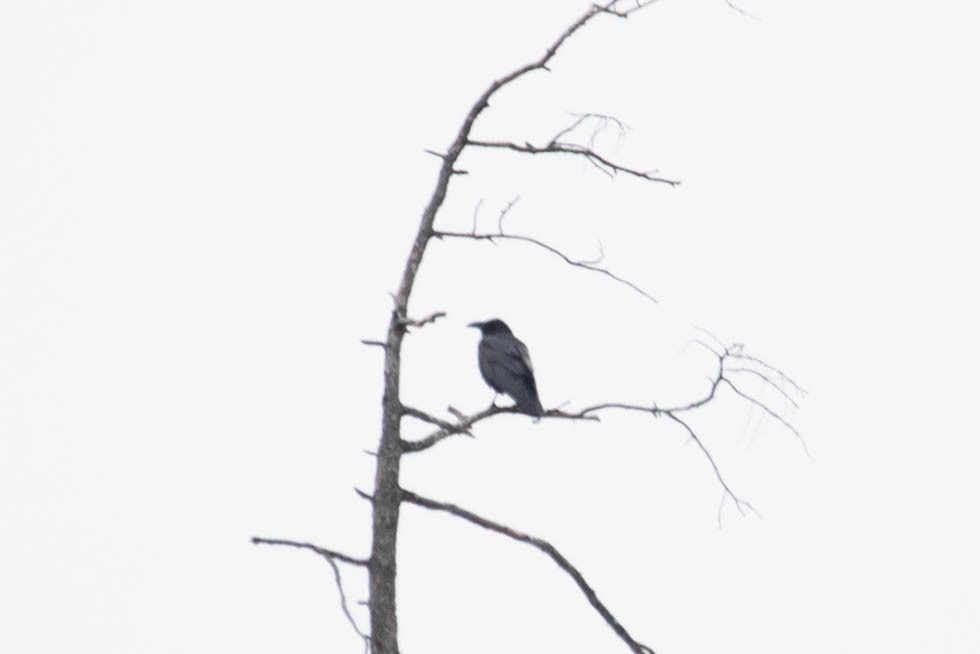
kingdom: Animalia
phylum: Chordata
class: Aves
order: Passeriformes
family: Corvidae
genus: Corvus
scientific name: Corvus corax
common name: Common raven
